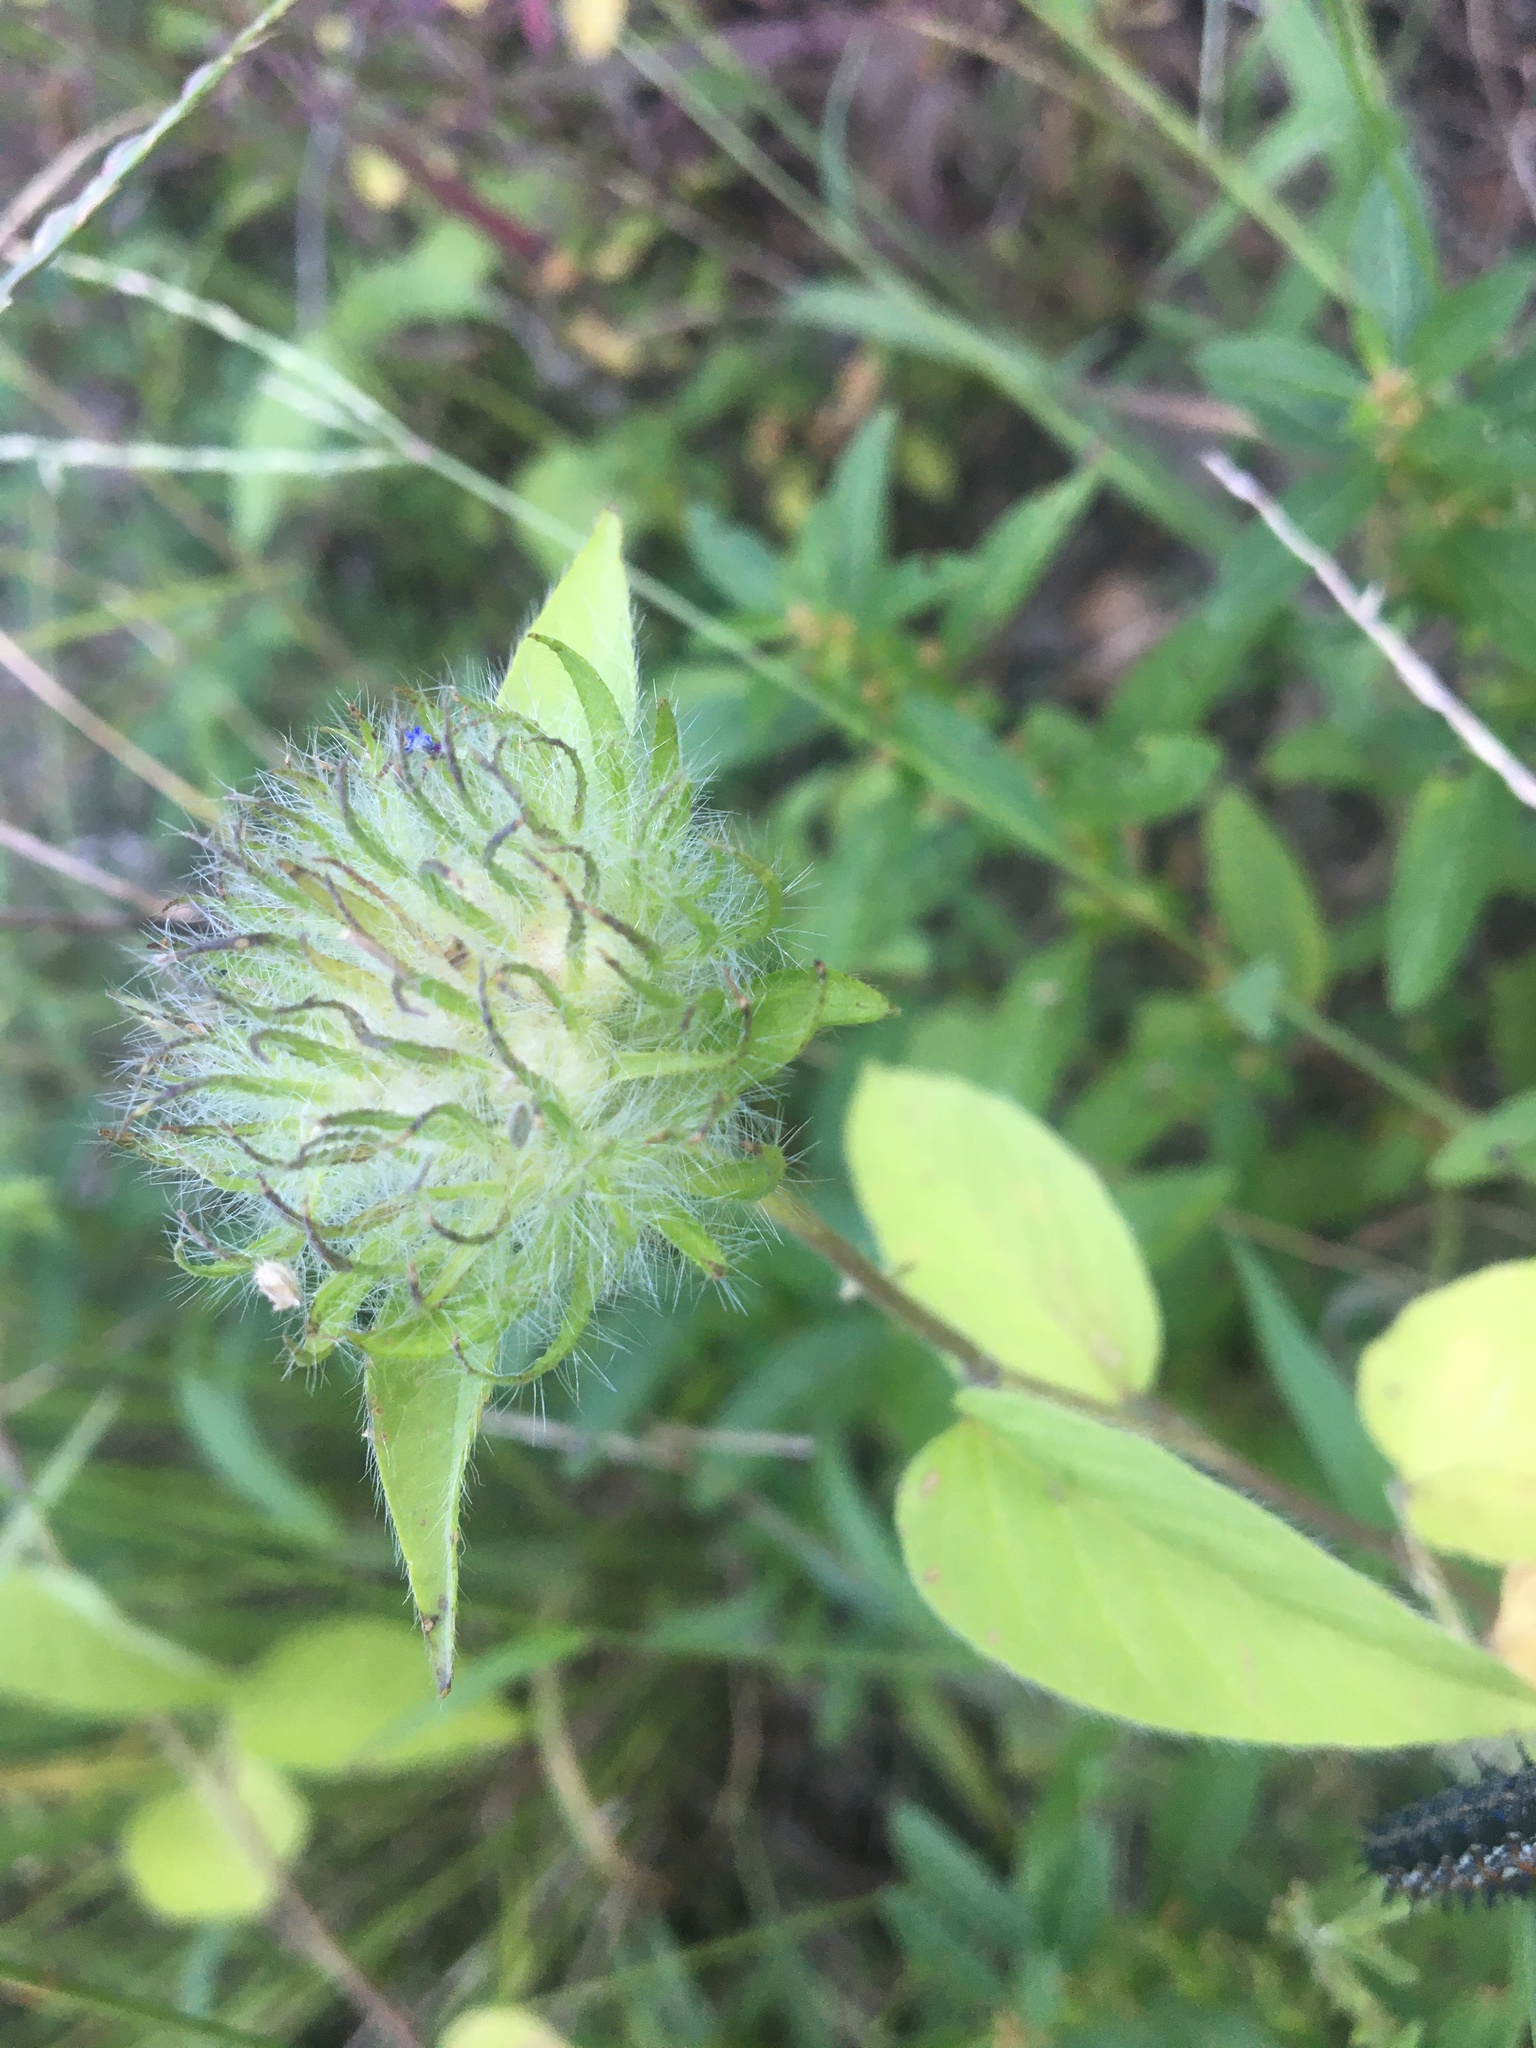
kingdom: Plantae
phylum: Tracheophyta
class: Magnoliopsida
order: Solanales
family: Convolvulaceae
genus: Jacquemontia
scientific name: Jacquemontia tamnifolia
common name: Hairy clustervine
